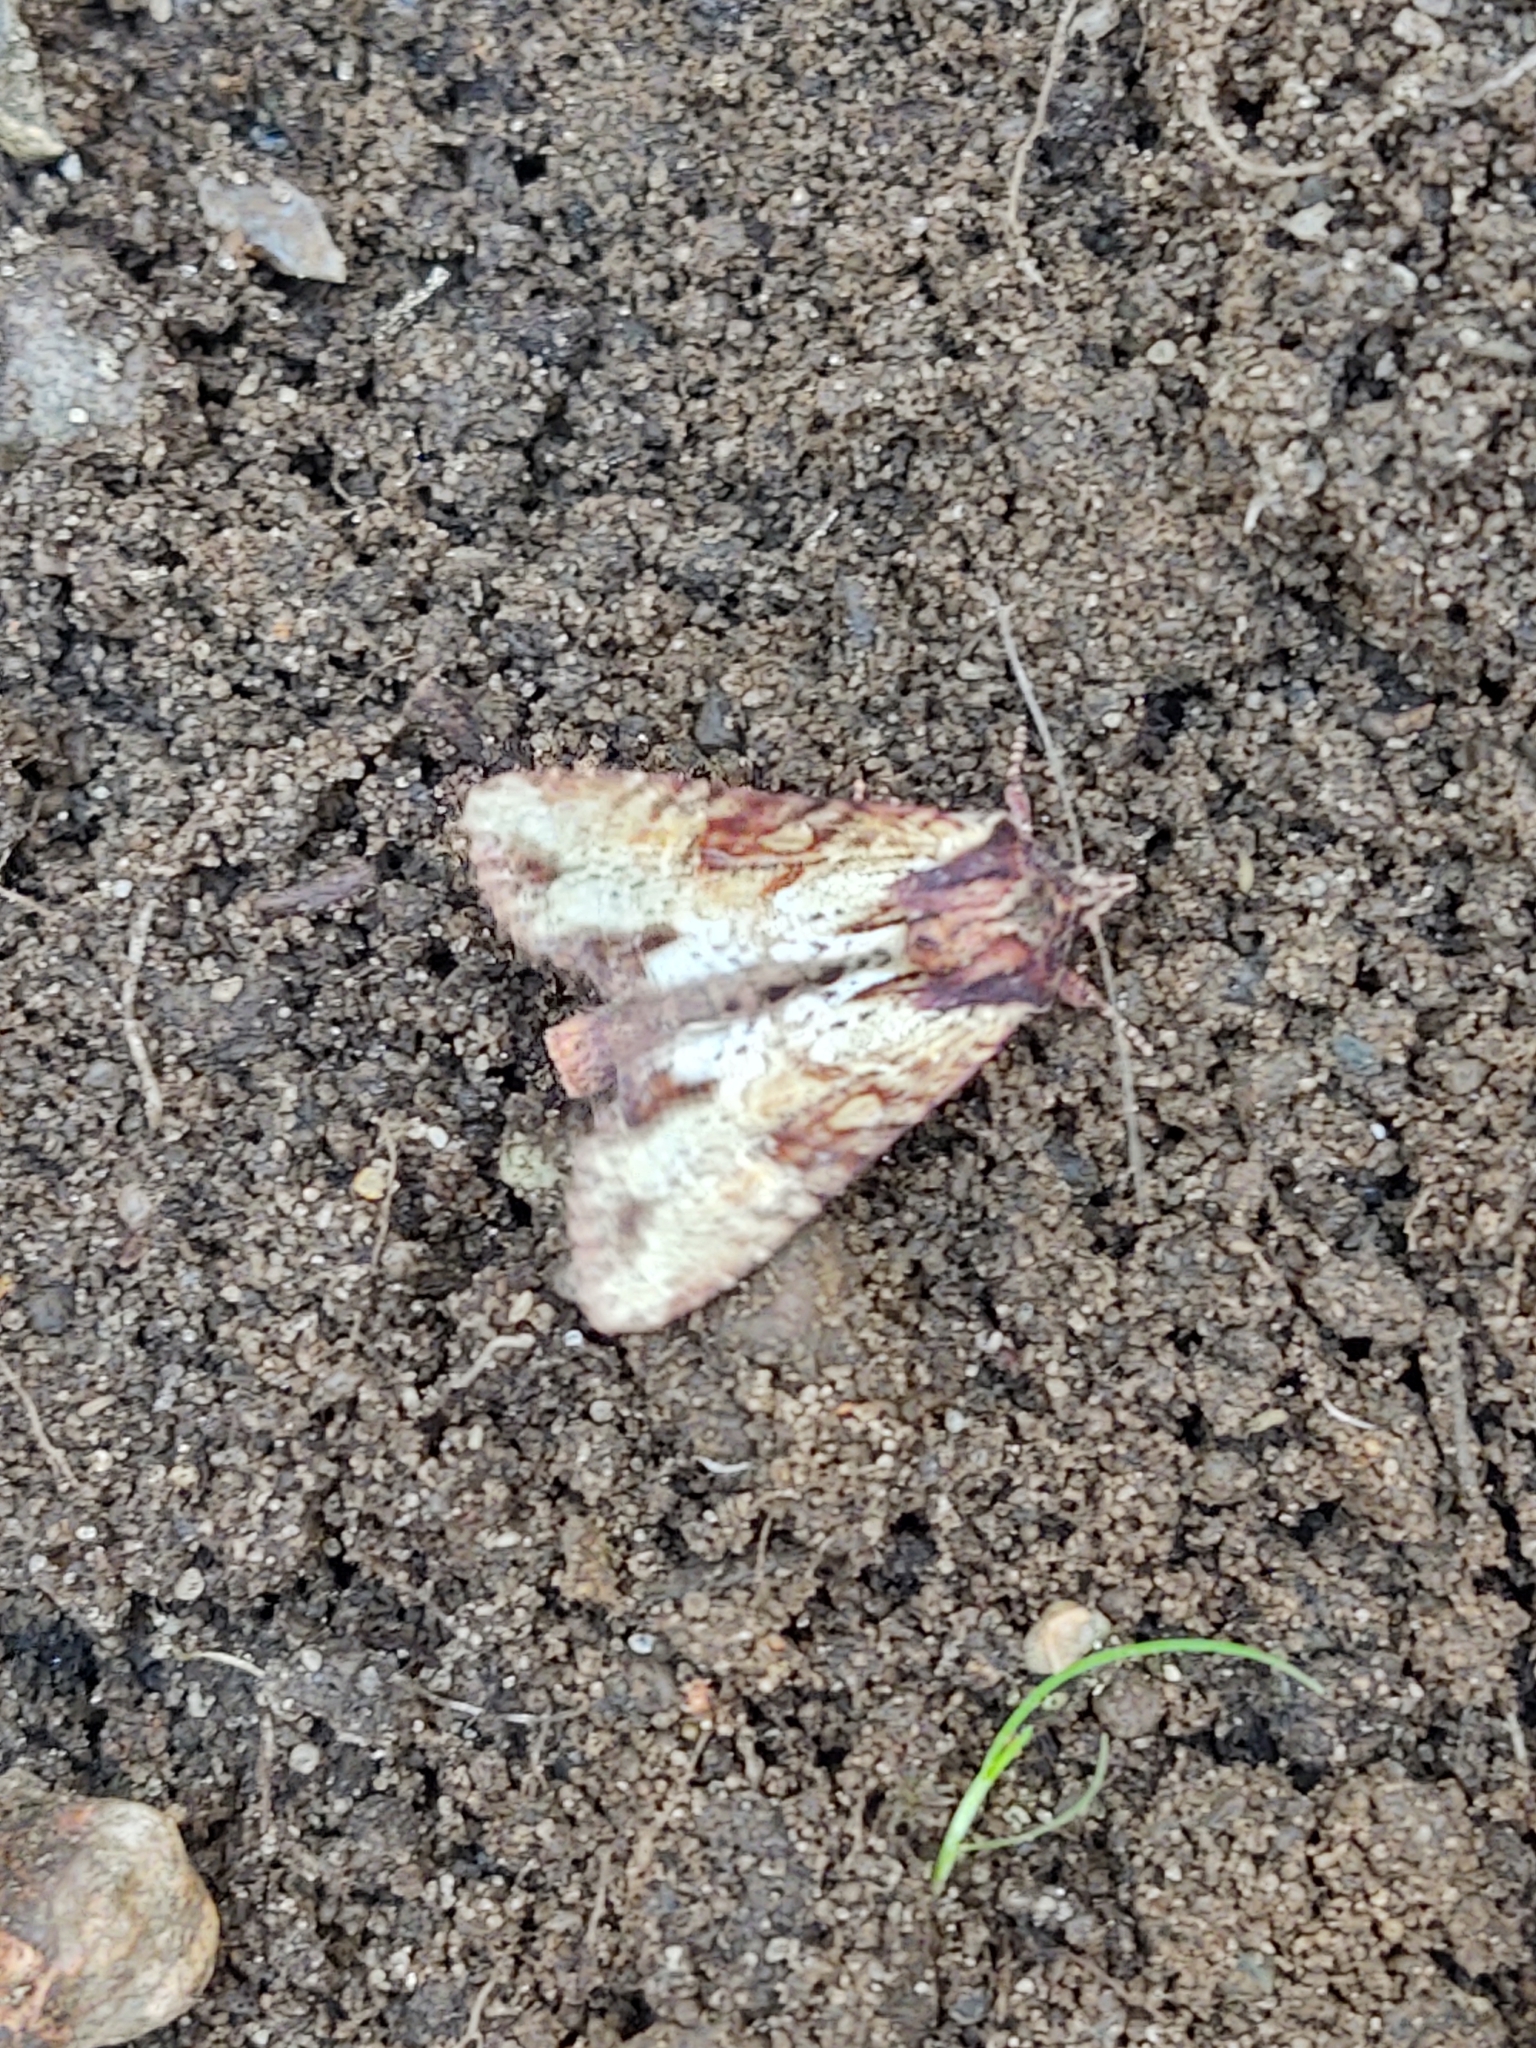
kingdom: Animalia
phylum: Arthropoda
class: Insecta
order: Lepidoptera
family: Noctuidae
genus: Apamea
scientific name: Apamea crenata
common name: Clouded-bordered brindle
